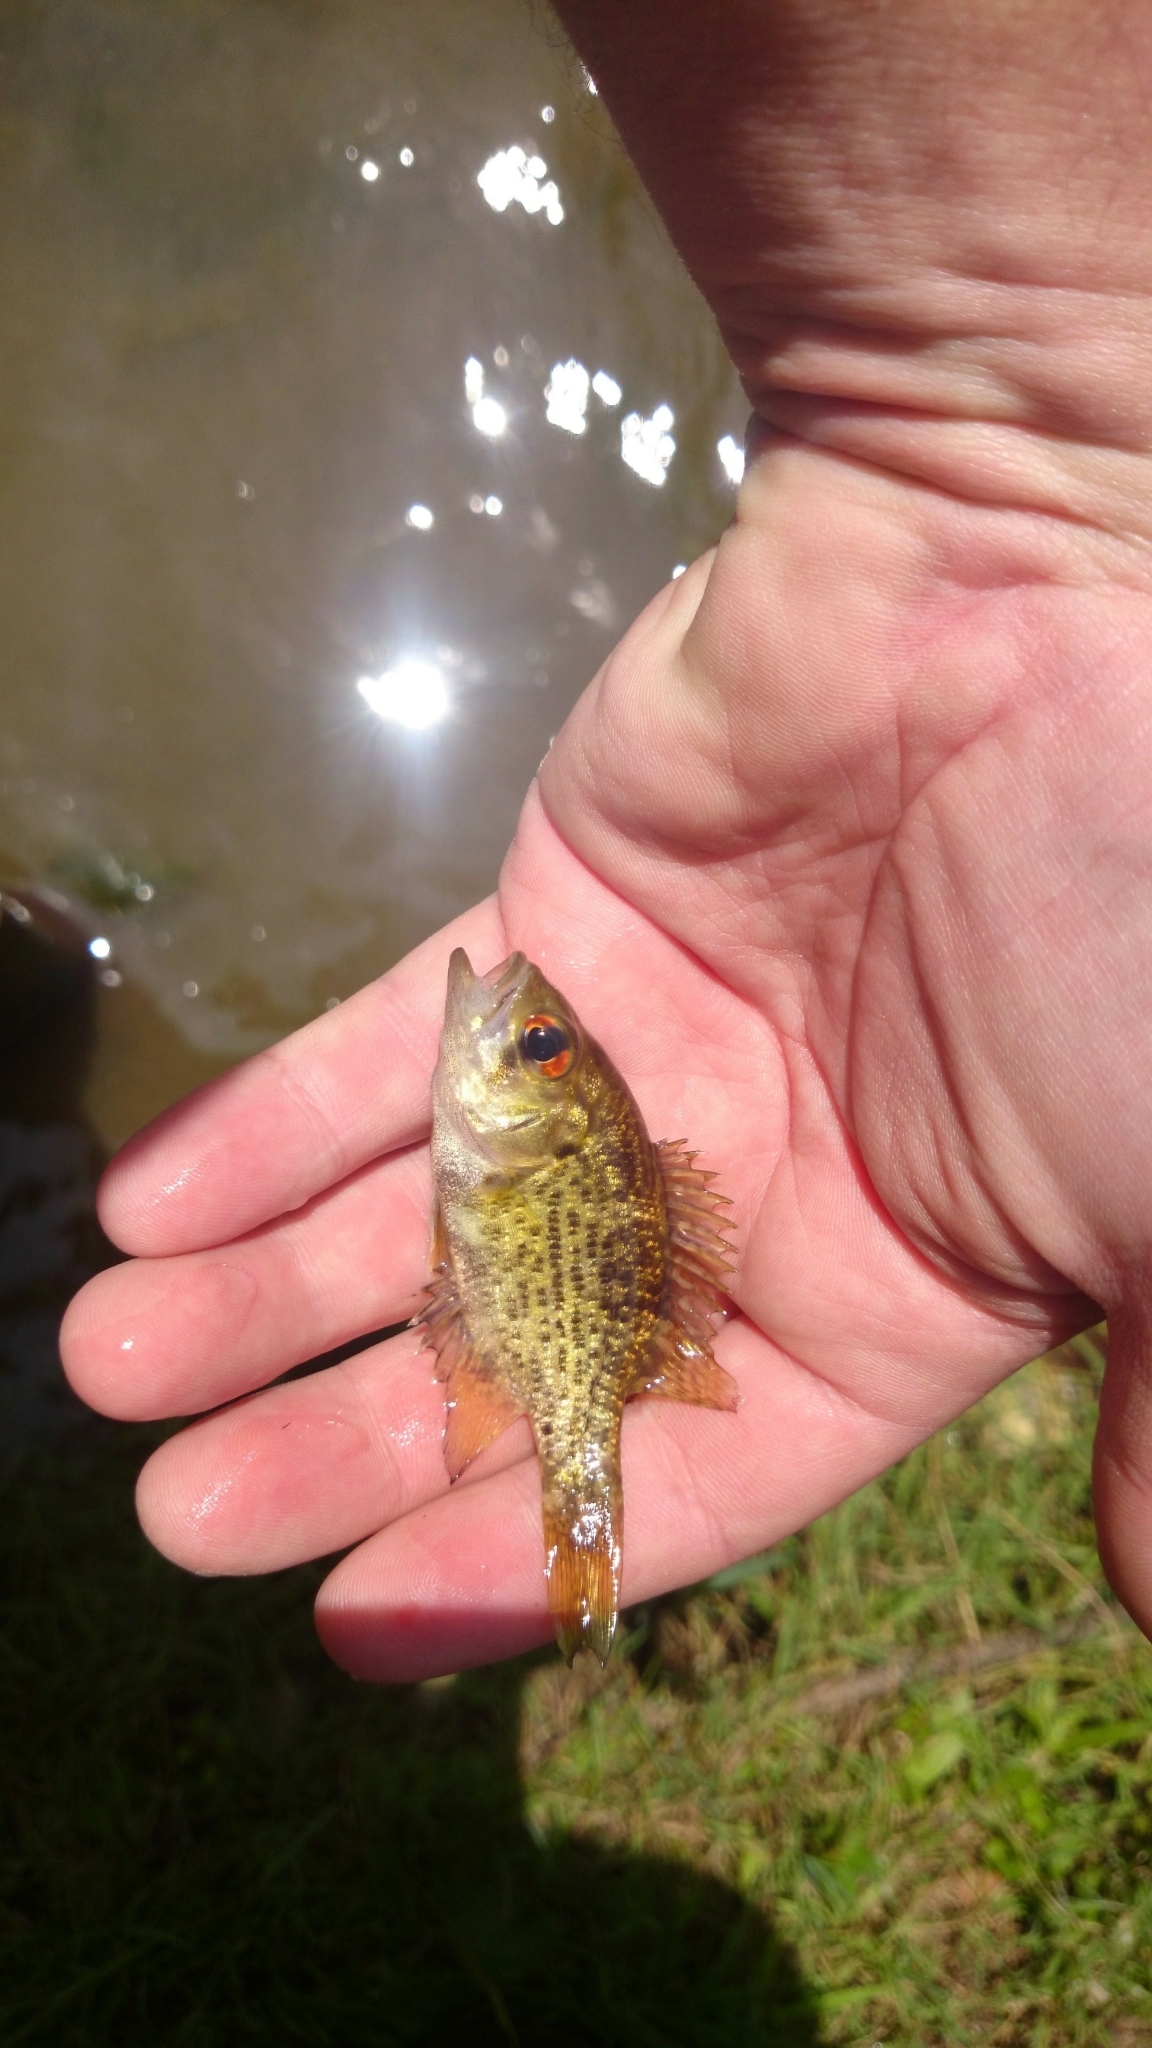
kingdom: Animalia
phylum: Chordata
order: Perciformes
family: Centrarchidae
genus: Ambloplites
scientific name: Ambloplites rupestris
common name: Rock bass
